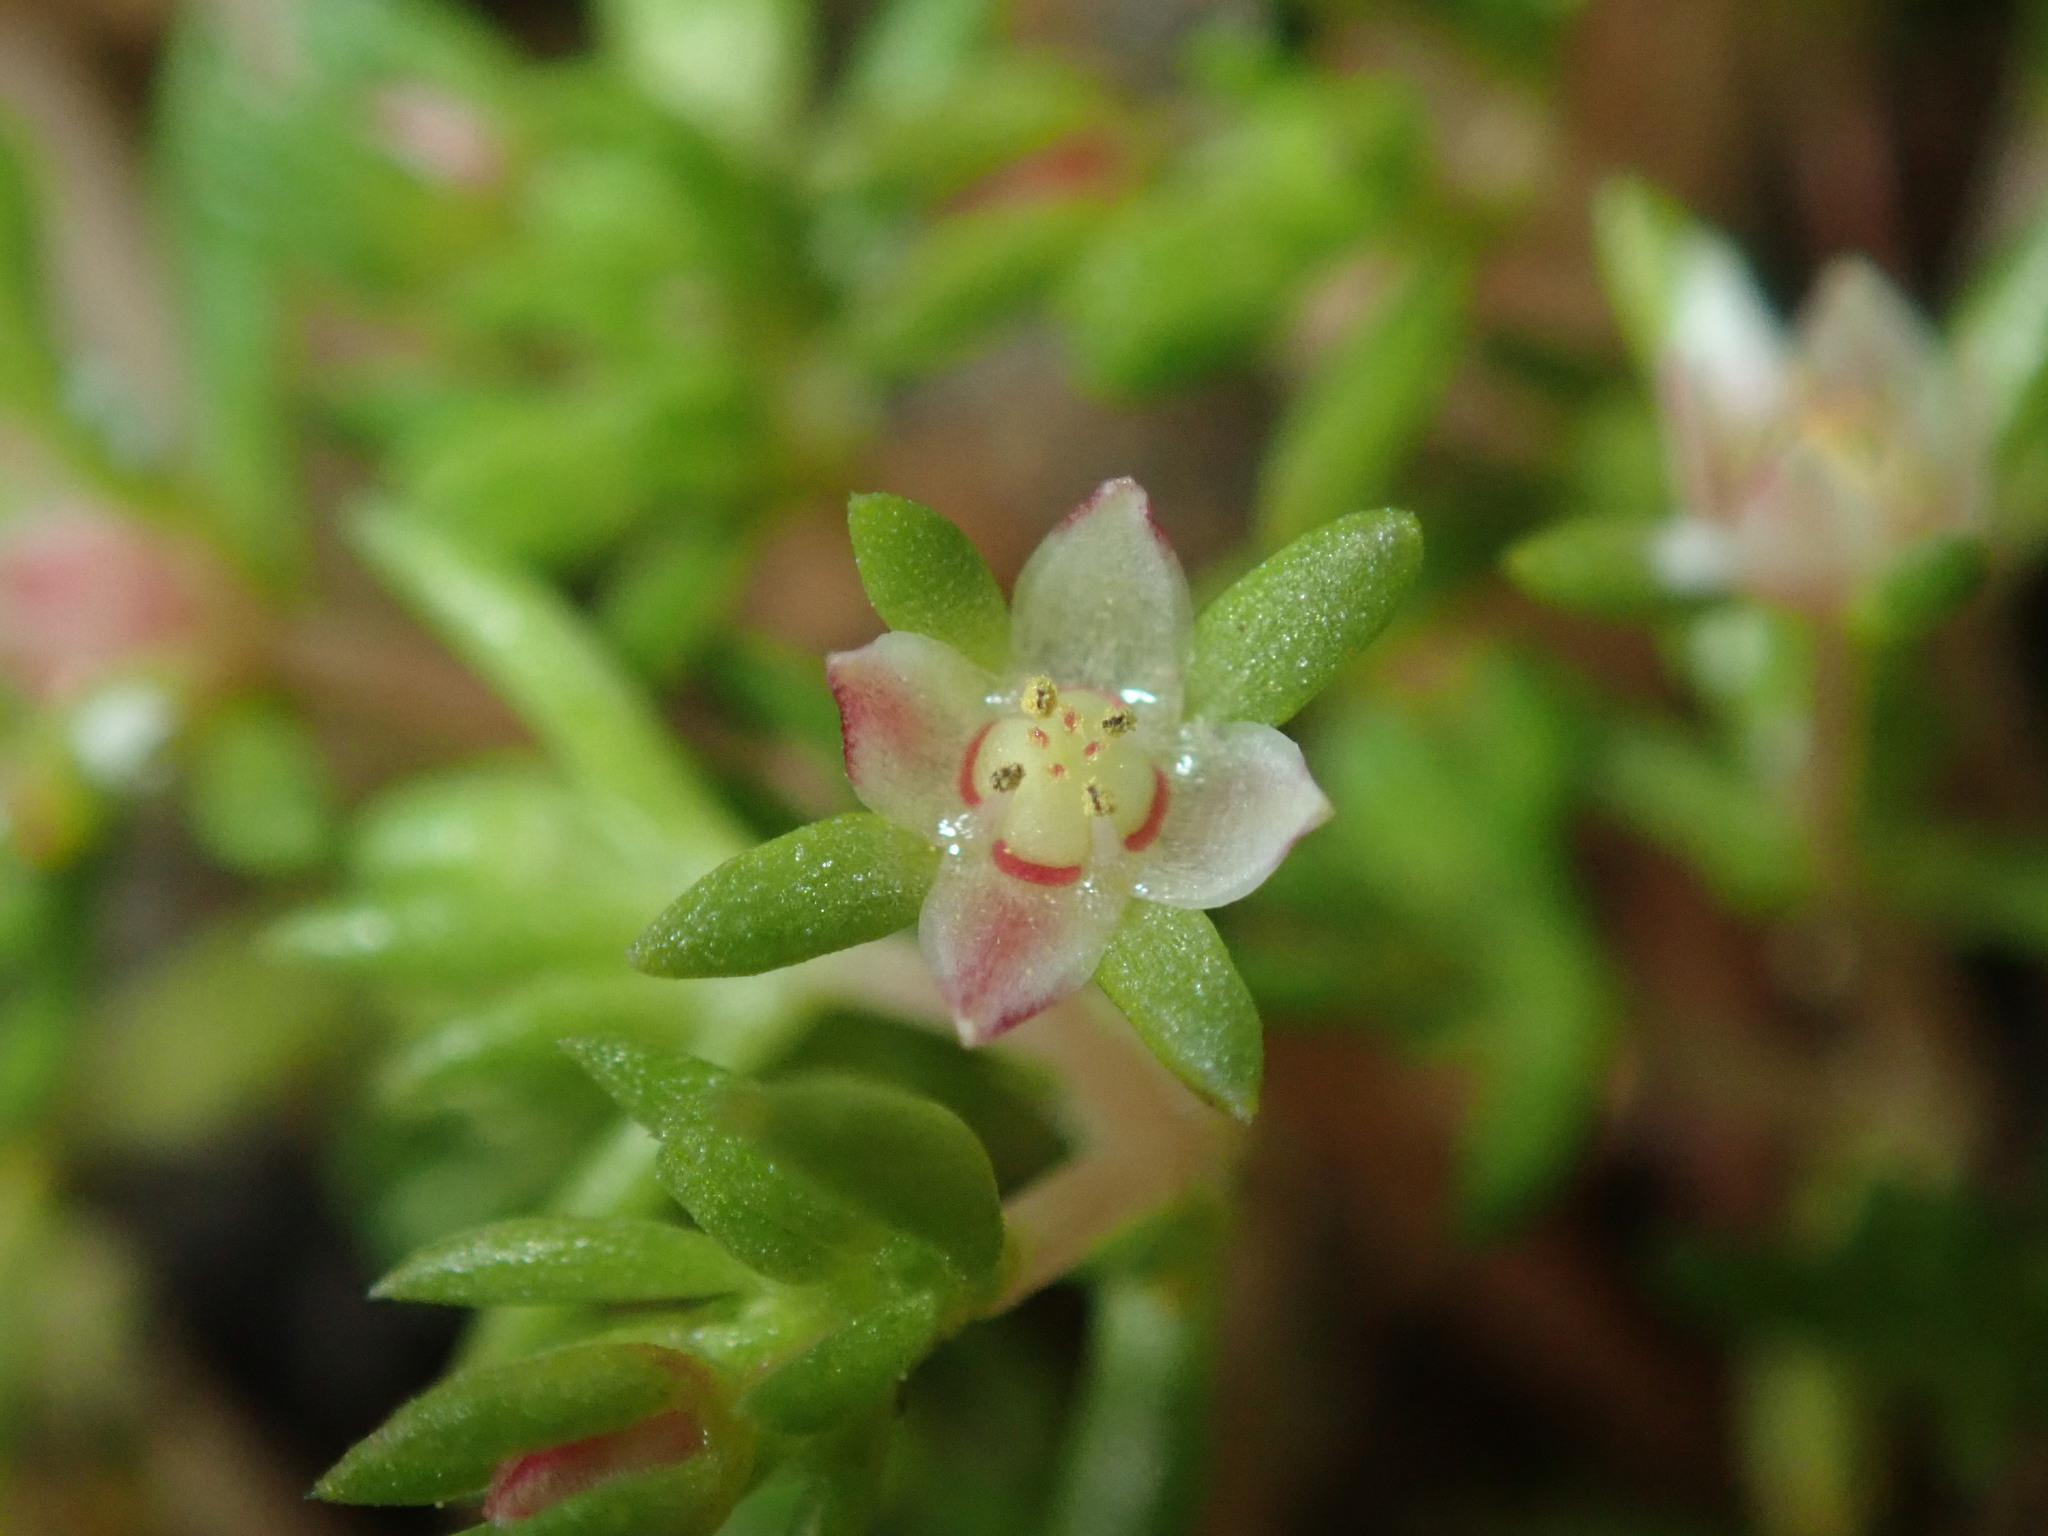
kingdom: Plantae
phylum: Tracheophyta
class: Magnoliopsida
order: Saxifragales
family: Crassulaceae
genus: Crassula
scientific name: Crassula decumbens
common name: Scilly pigmyweed
